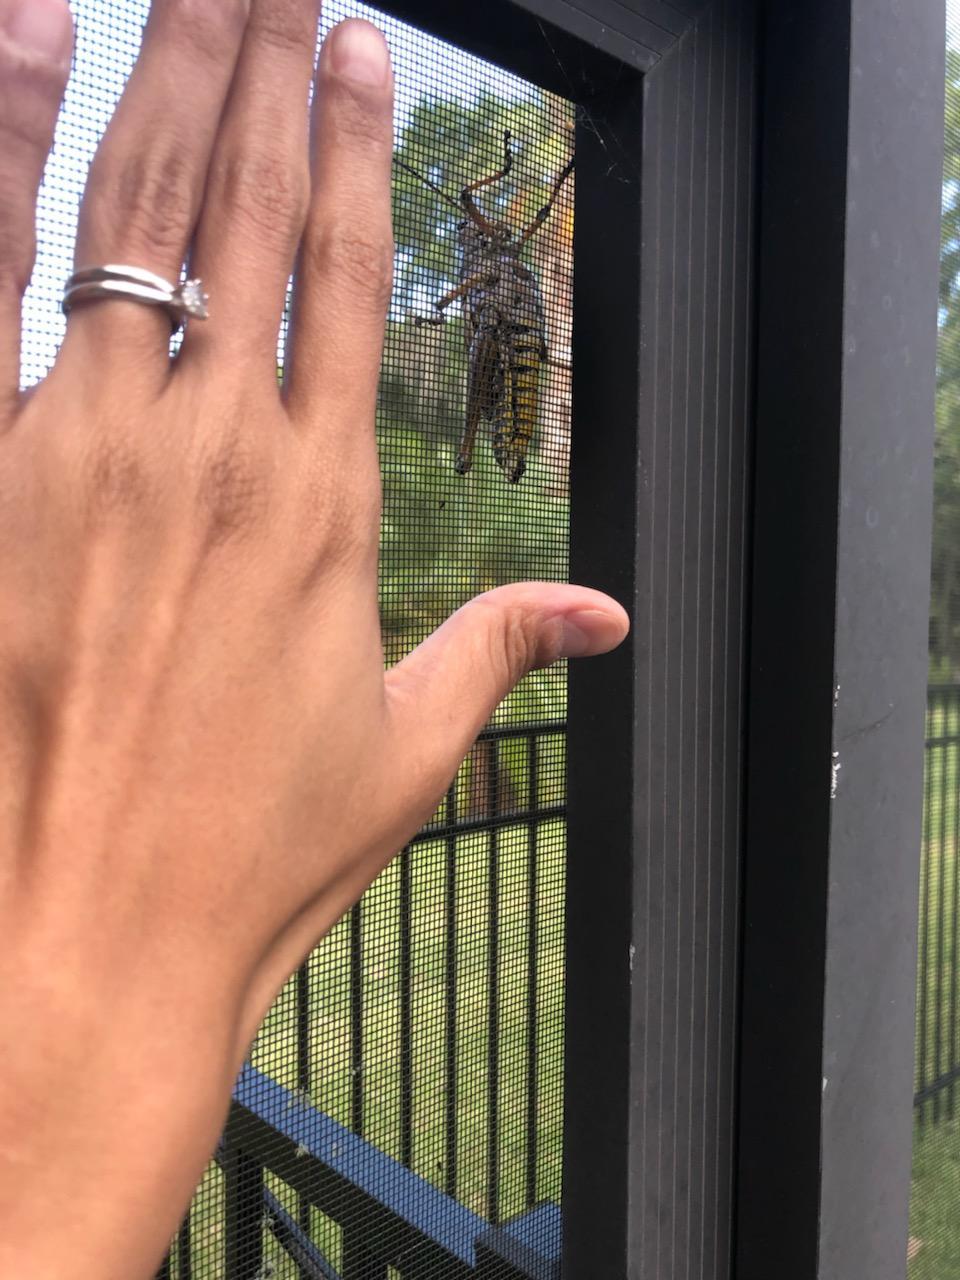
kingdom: Animalia
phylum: Arthropoda
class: Insecta
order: Orthoptera
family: Romaleidae
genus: Romalea
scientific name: Romalea microptera
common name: Eastern lubber grasshopper
